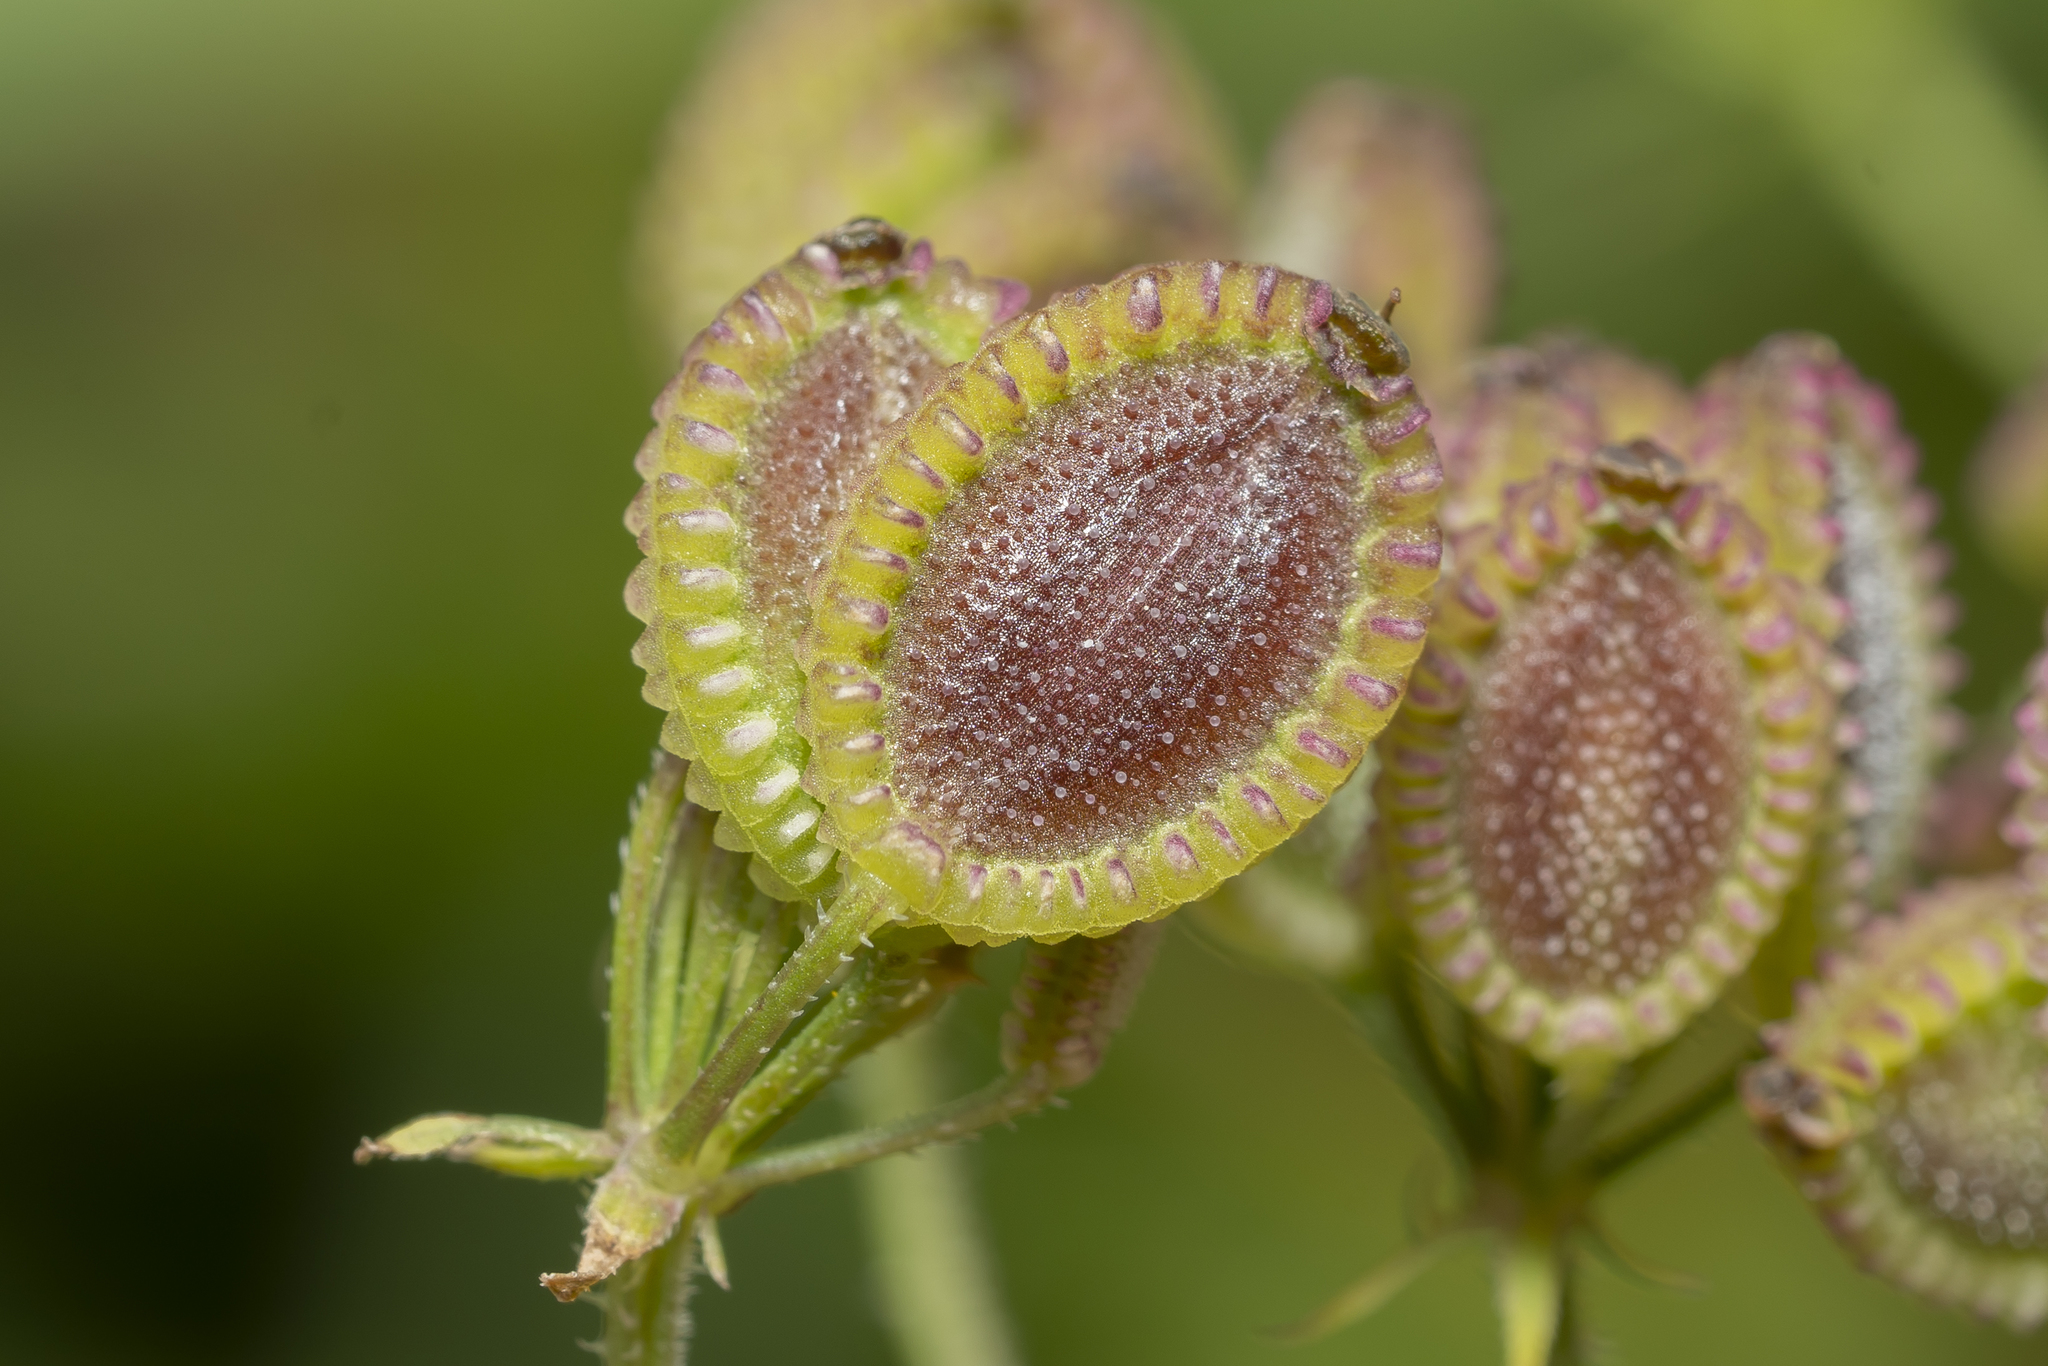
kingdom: Plantae
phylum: Tracheophyta
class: Magnoliopsida
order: Apiales
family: Apiaceae
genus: Tordylium
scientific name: Tordylium apulum
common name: Mediterranean hartwort
